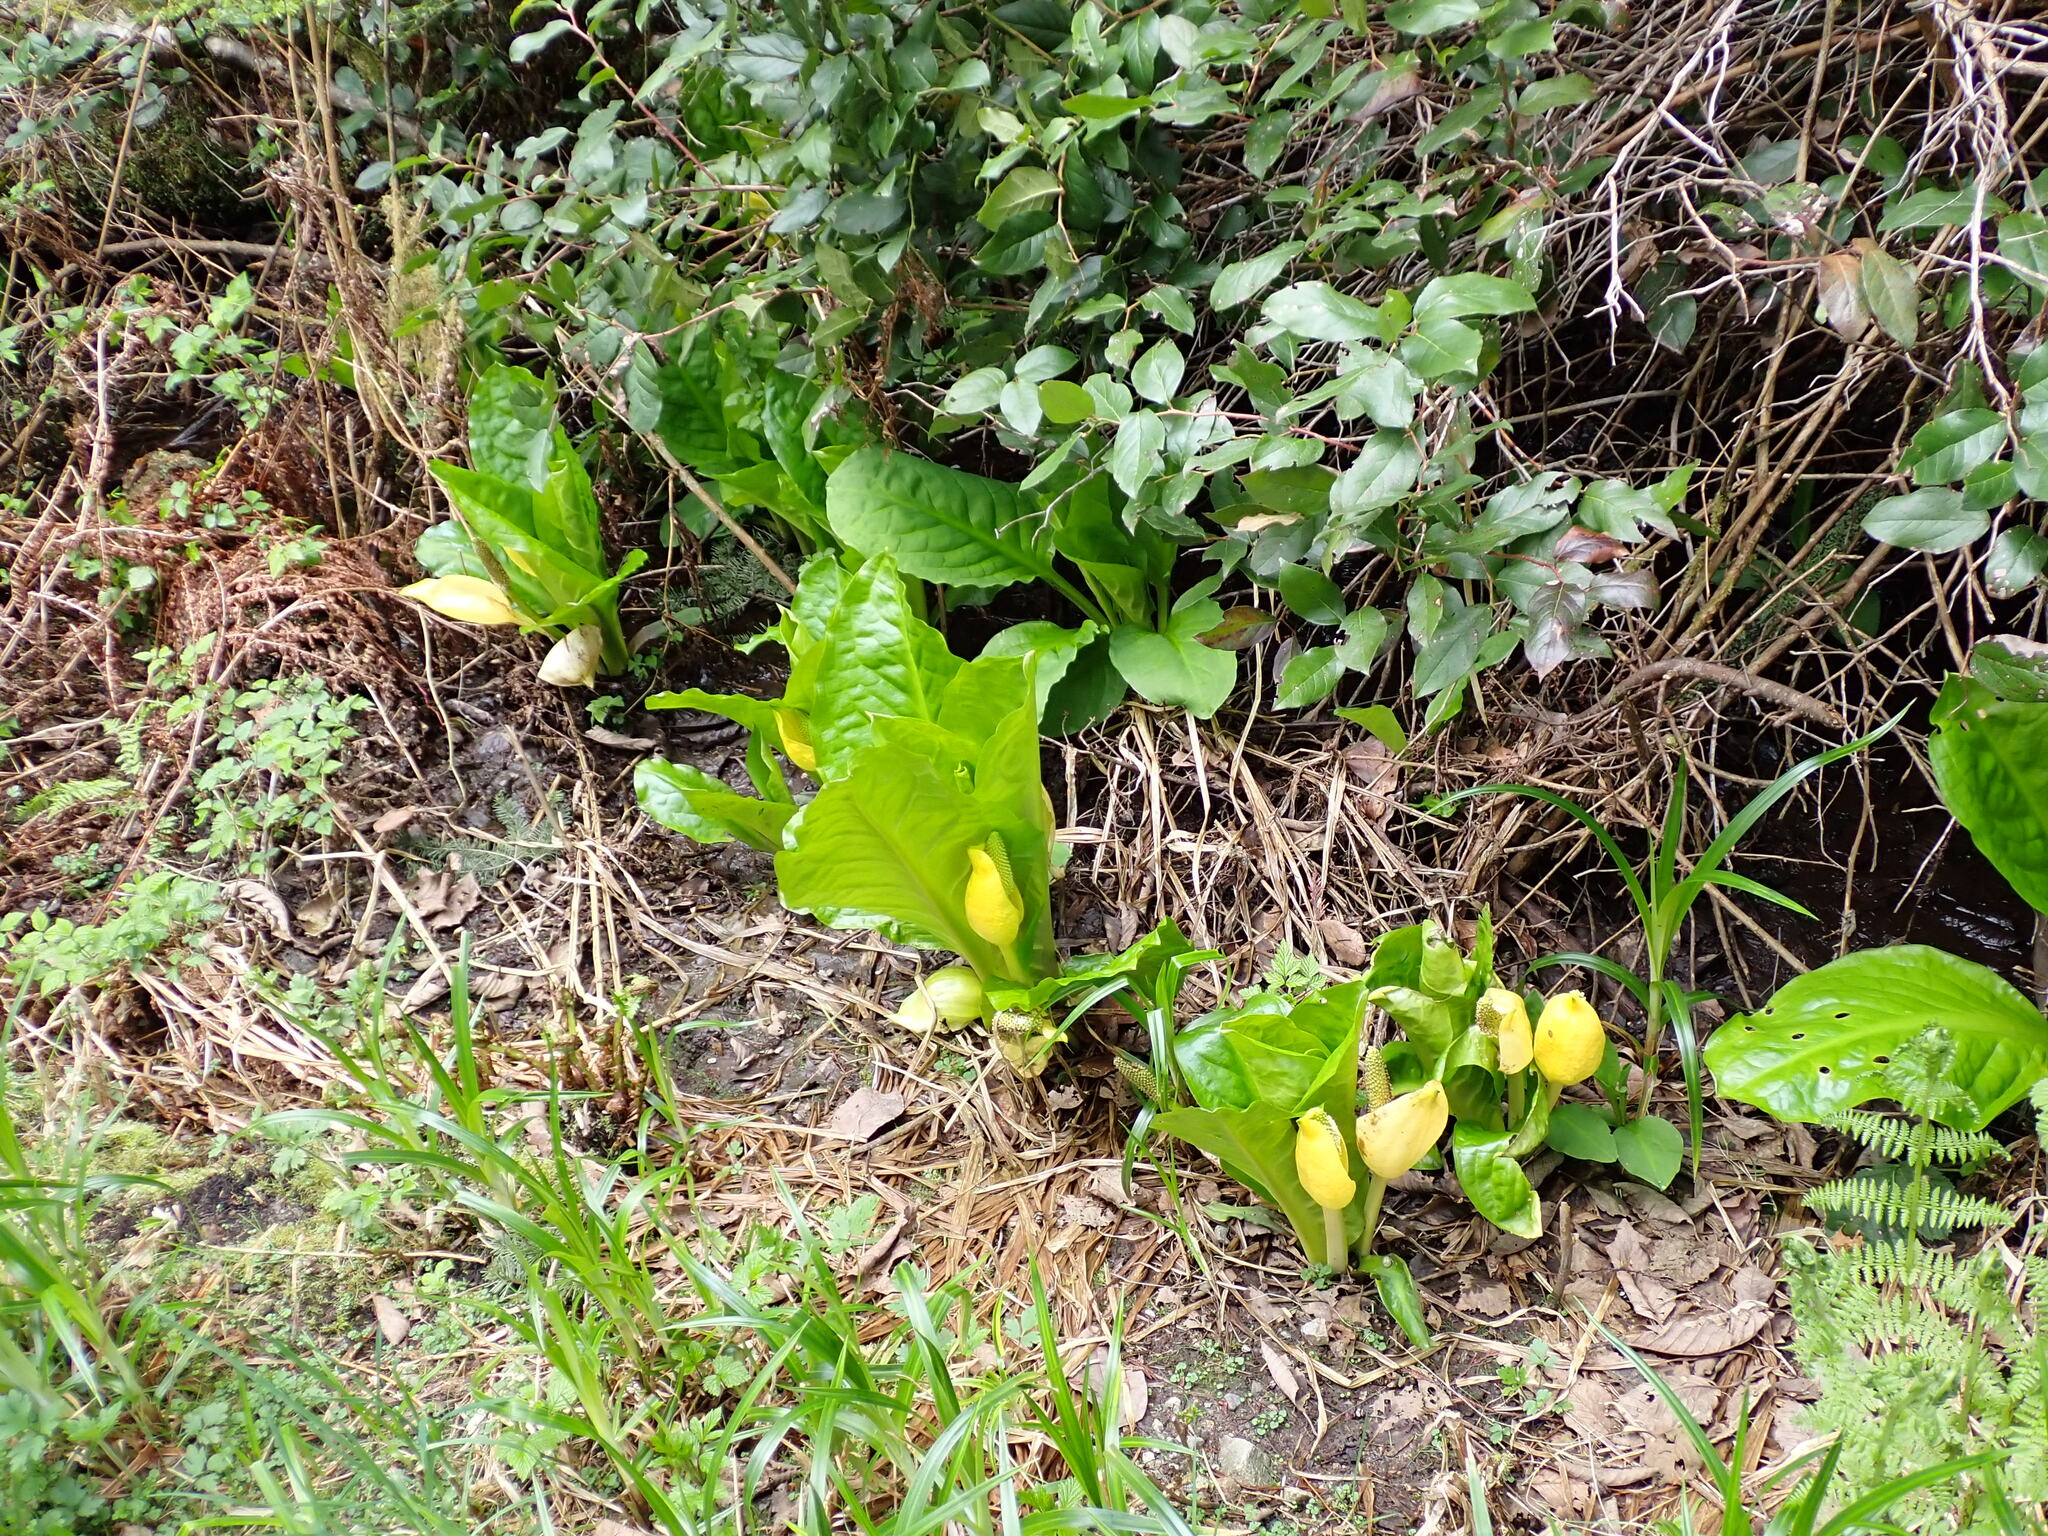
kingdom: Plantae
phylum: Tracheophyta
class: Liliopsida
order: Alismatales
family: Araceae
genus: Lysichiton
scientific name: Lysichiton americanus
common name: American skunk cabbage
